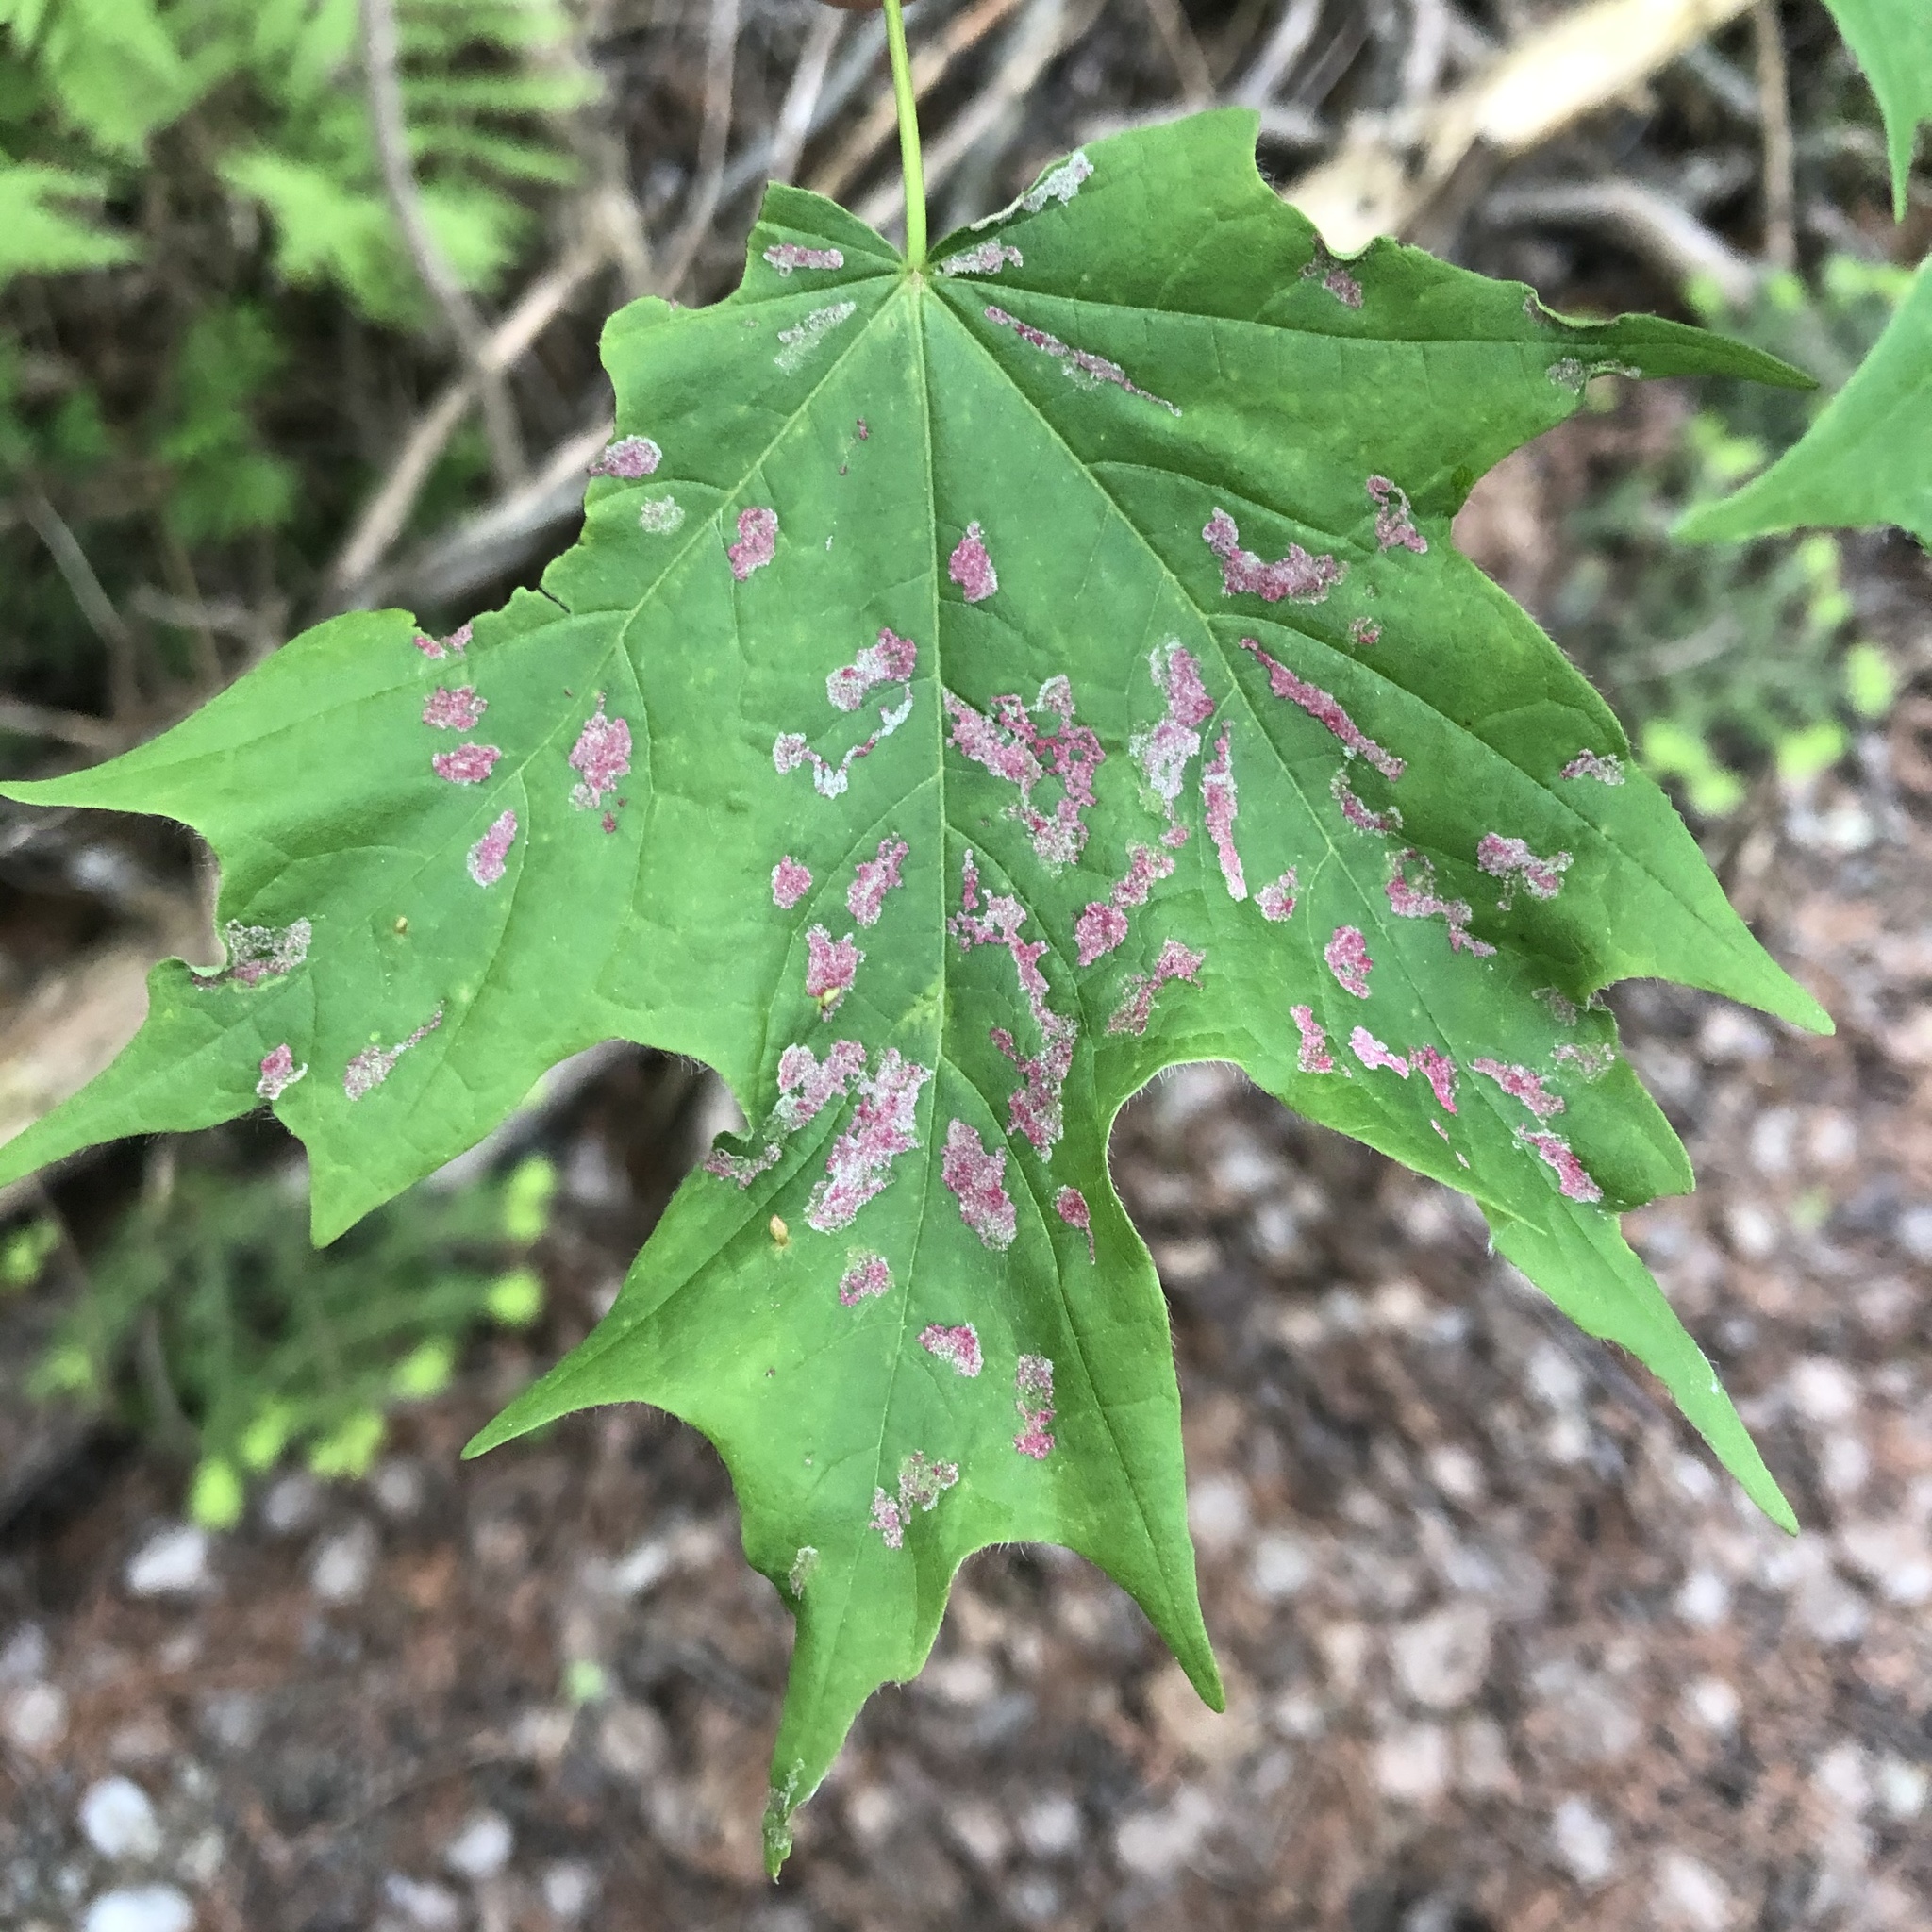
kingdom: Animalia
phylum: Arthropoda
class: Arachnida
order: Trombidiformes
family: Eriophyidae
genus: Aceria
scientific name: Aceria
